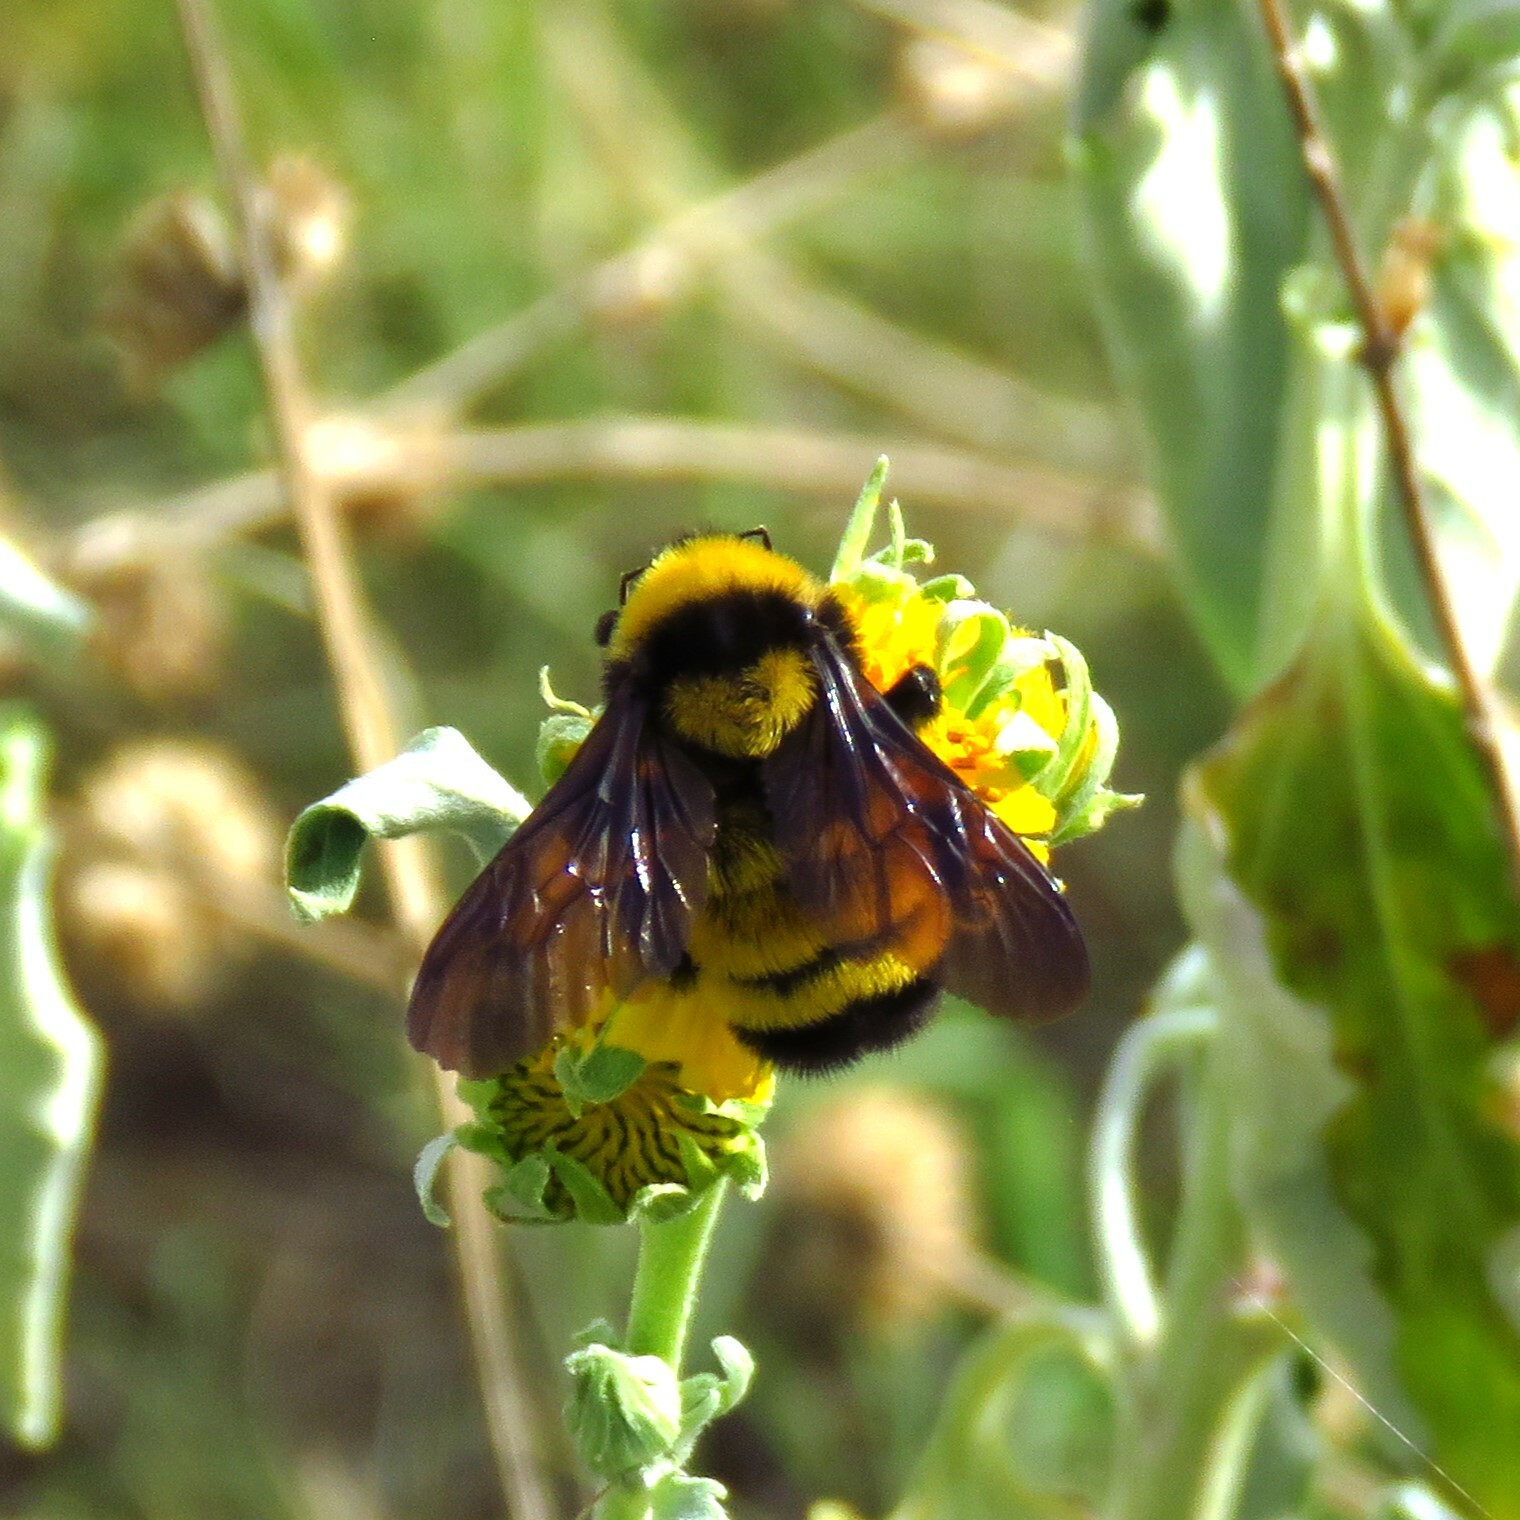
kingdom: Animalia
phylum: Arthropoda
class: Insecta
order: Hymenoptera
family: Apidae
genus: Bombus
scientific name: Bombus sonorus
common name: Sonoran bumble bee
